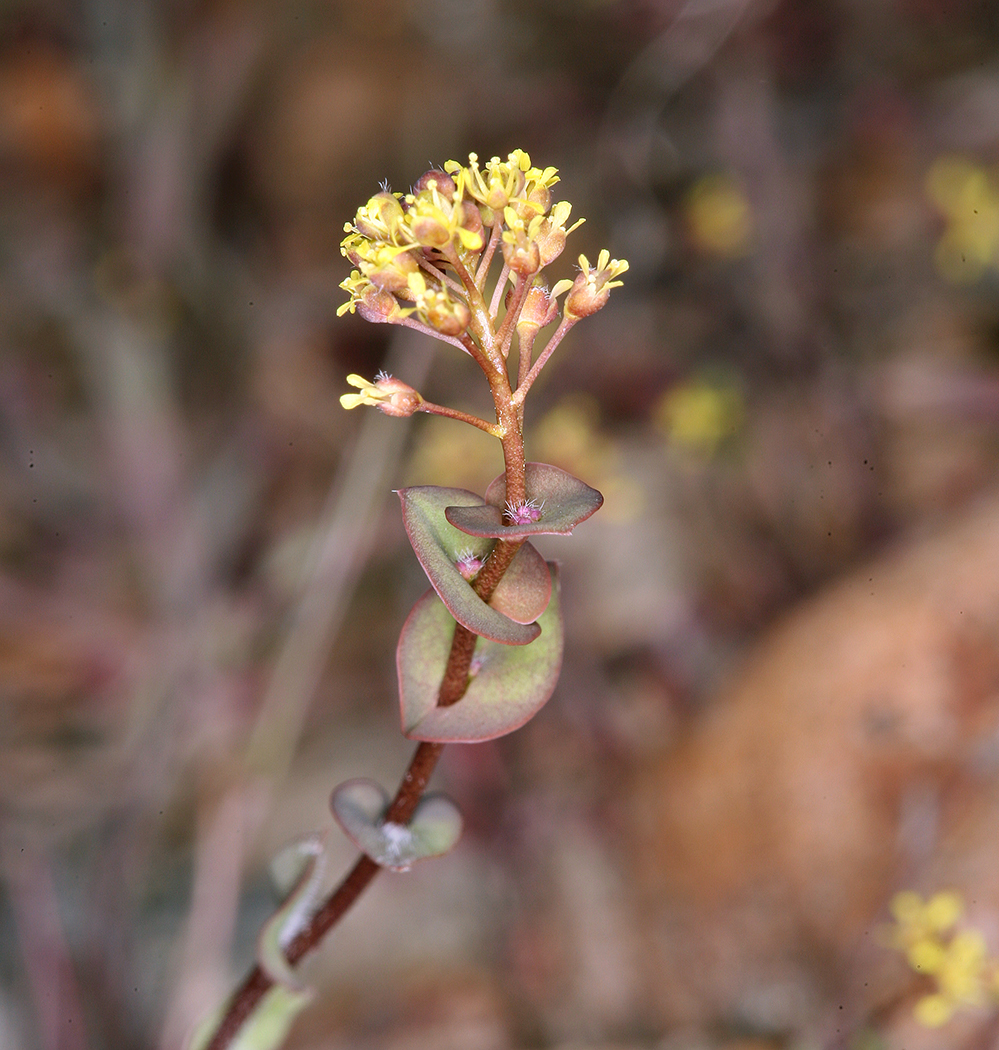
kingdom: Plantae
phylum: Tracheophyta
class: Magnoliopsida
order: Brassicales
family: Brassicaceae
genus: Lepidium
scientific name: Lepidium perfoliatum
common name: Perfoliate pepperwort
